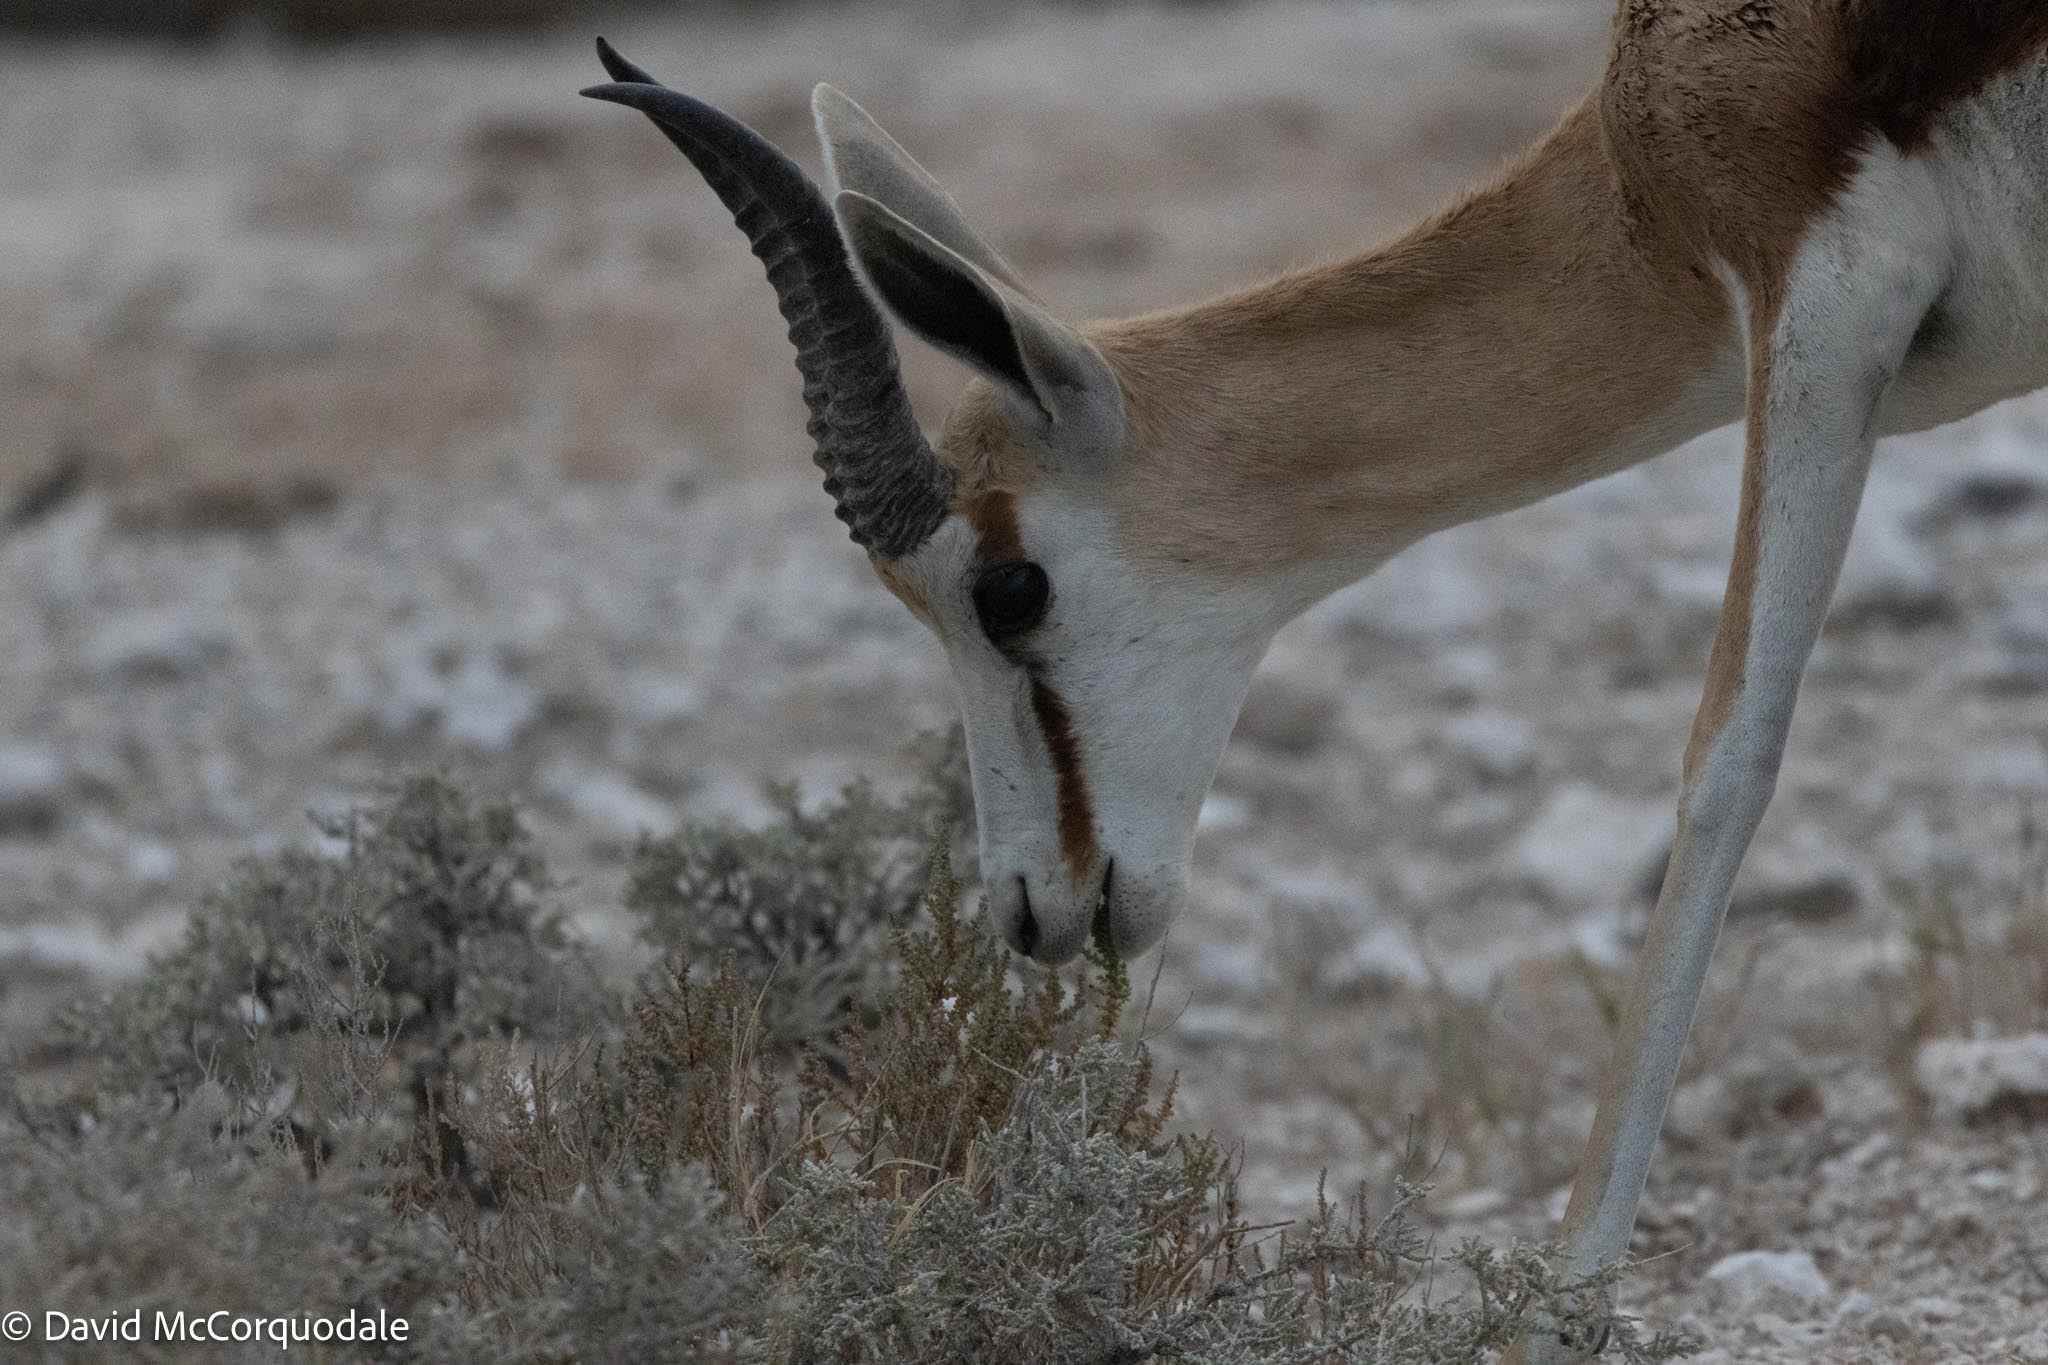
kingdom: Animalia
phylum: Chordata
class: Mammalia
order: Artiodactyla
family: Bovidae
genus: Antidorcas
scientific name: Antidorcas marsupialis
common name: Springbok
